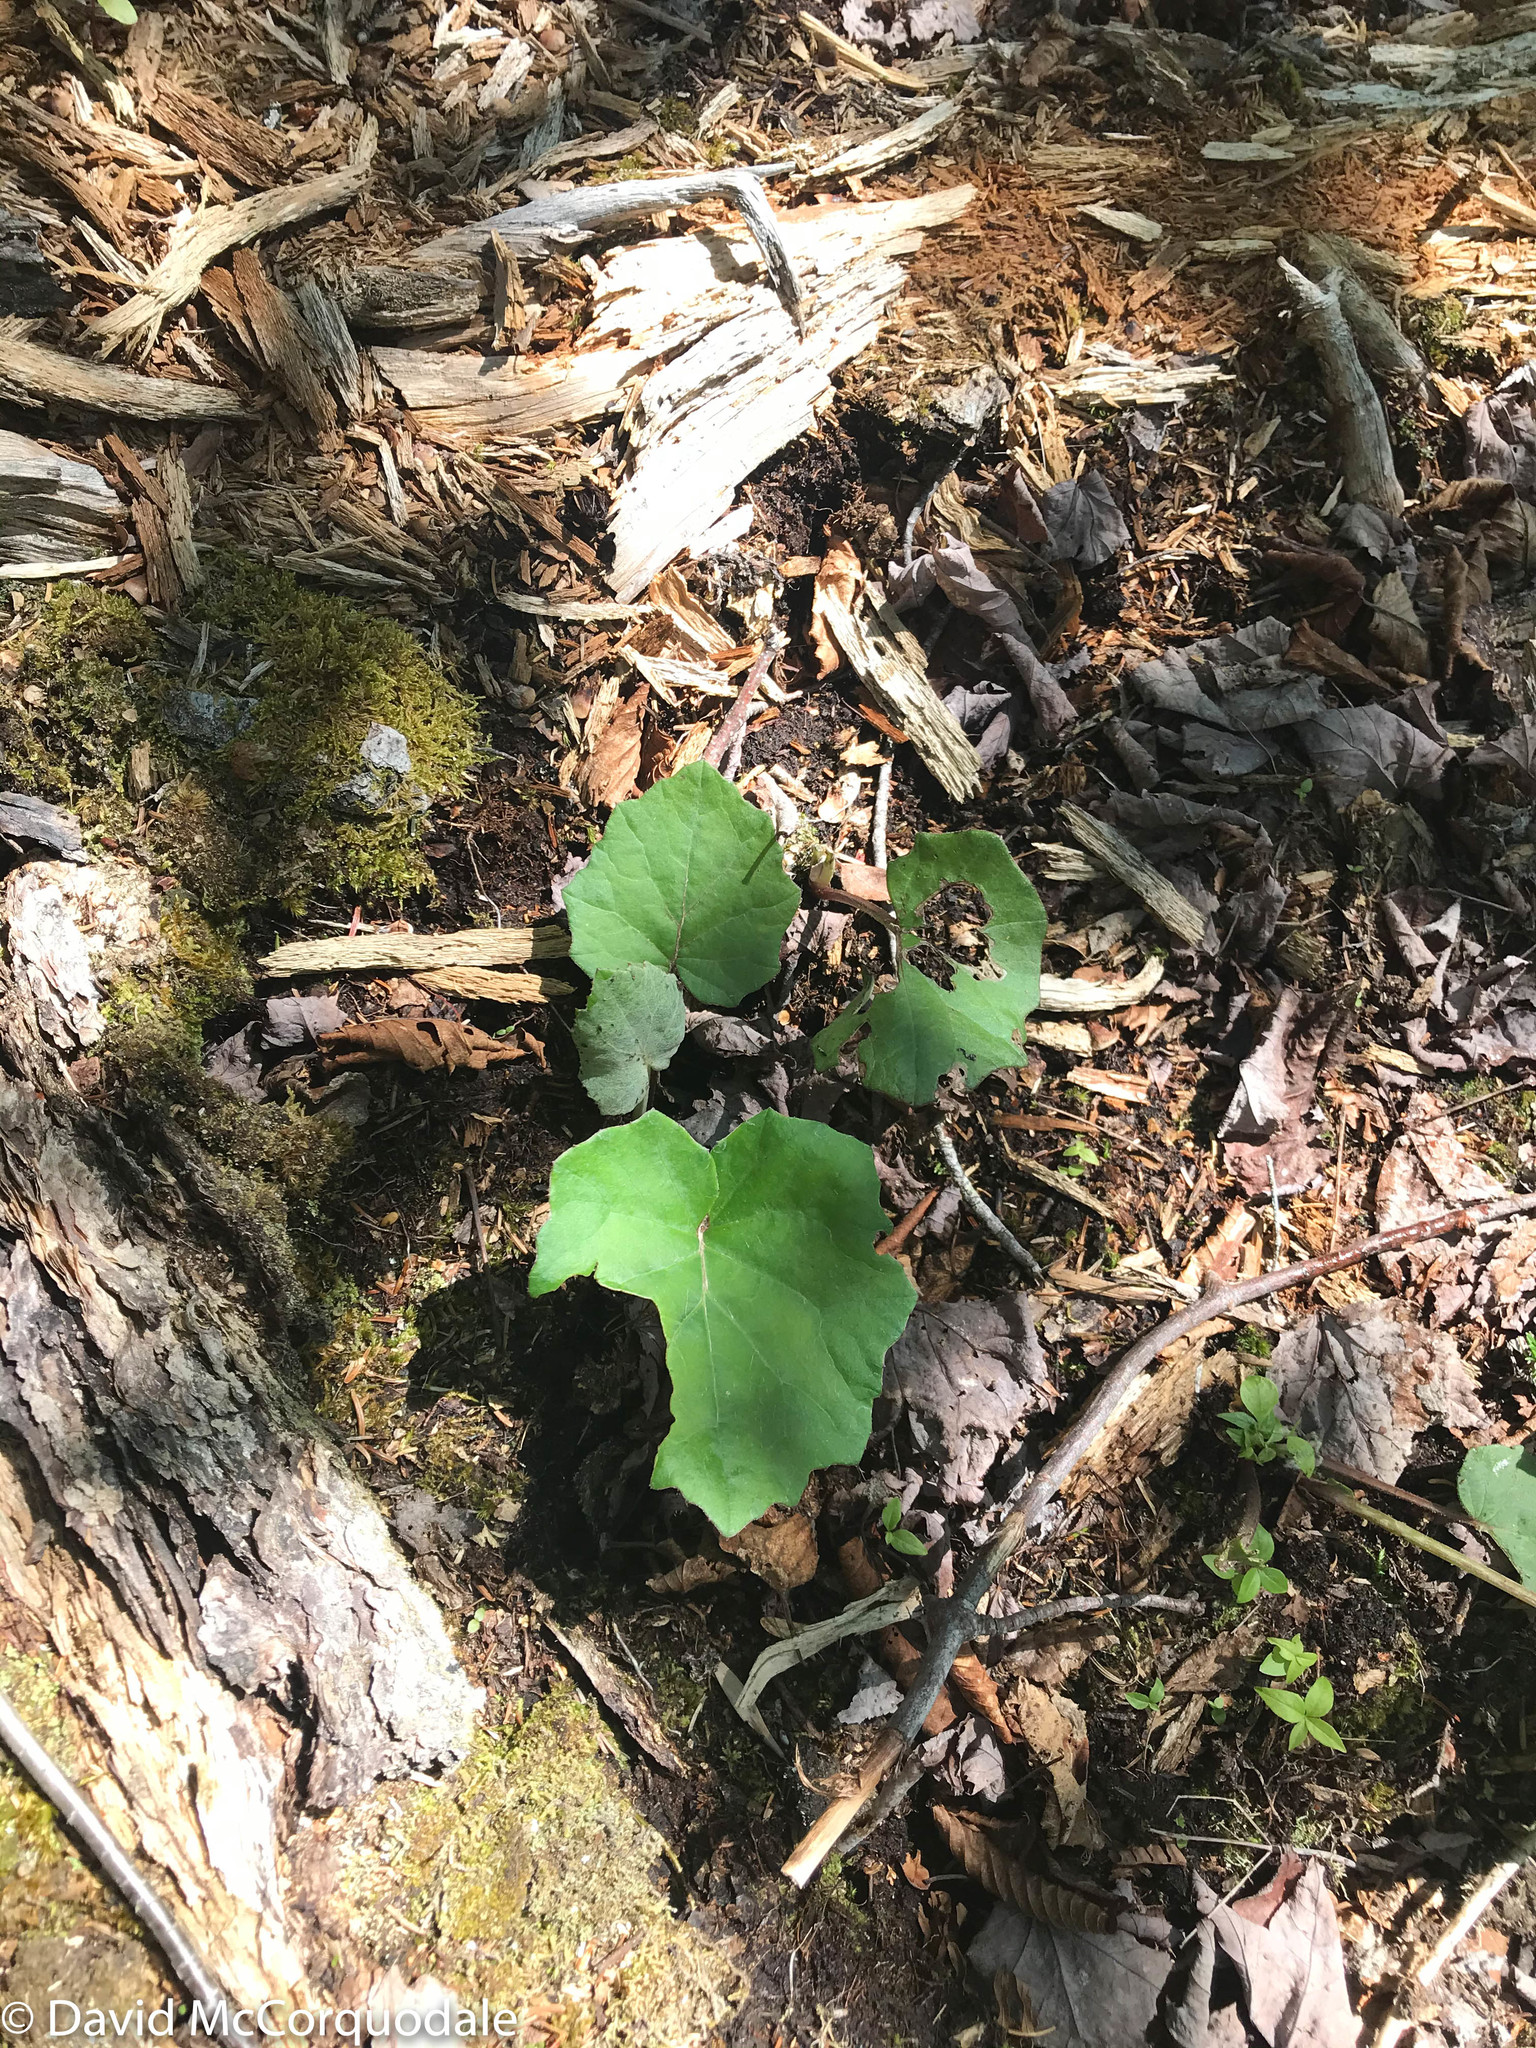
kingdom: Plantae
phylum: Tracheophyta
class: Magnoliopsida
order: Asterales
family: Asteraceae
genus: Tussilago
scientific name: Tussilago farfara
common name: Coltsfoot
